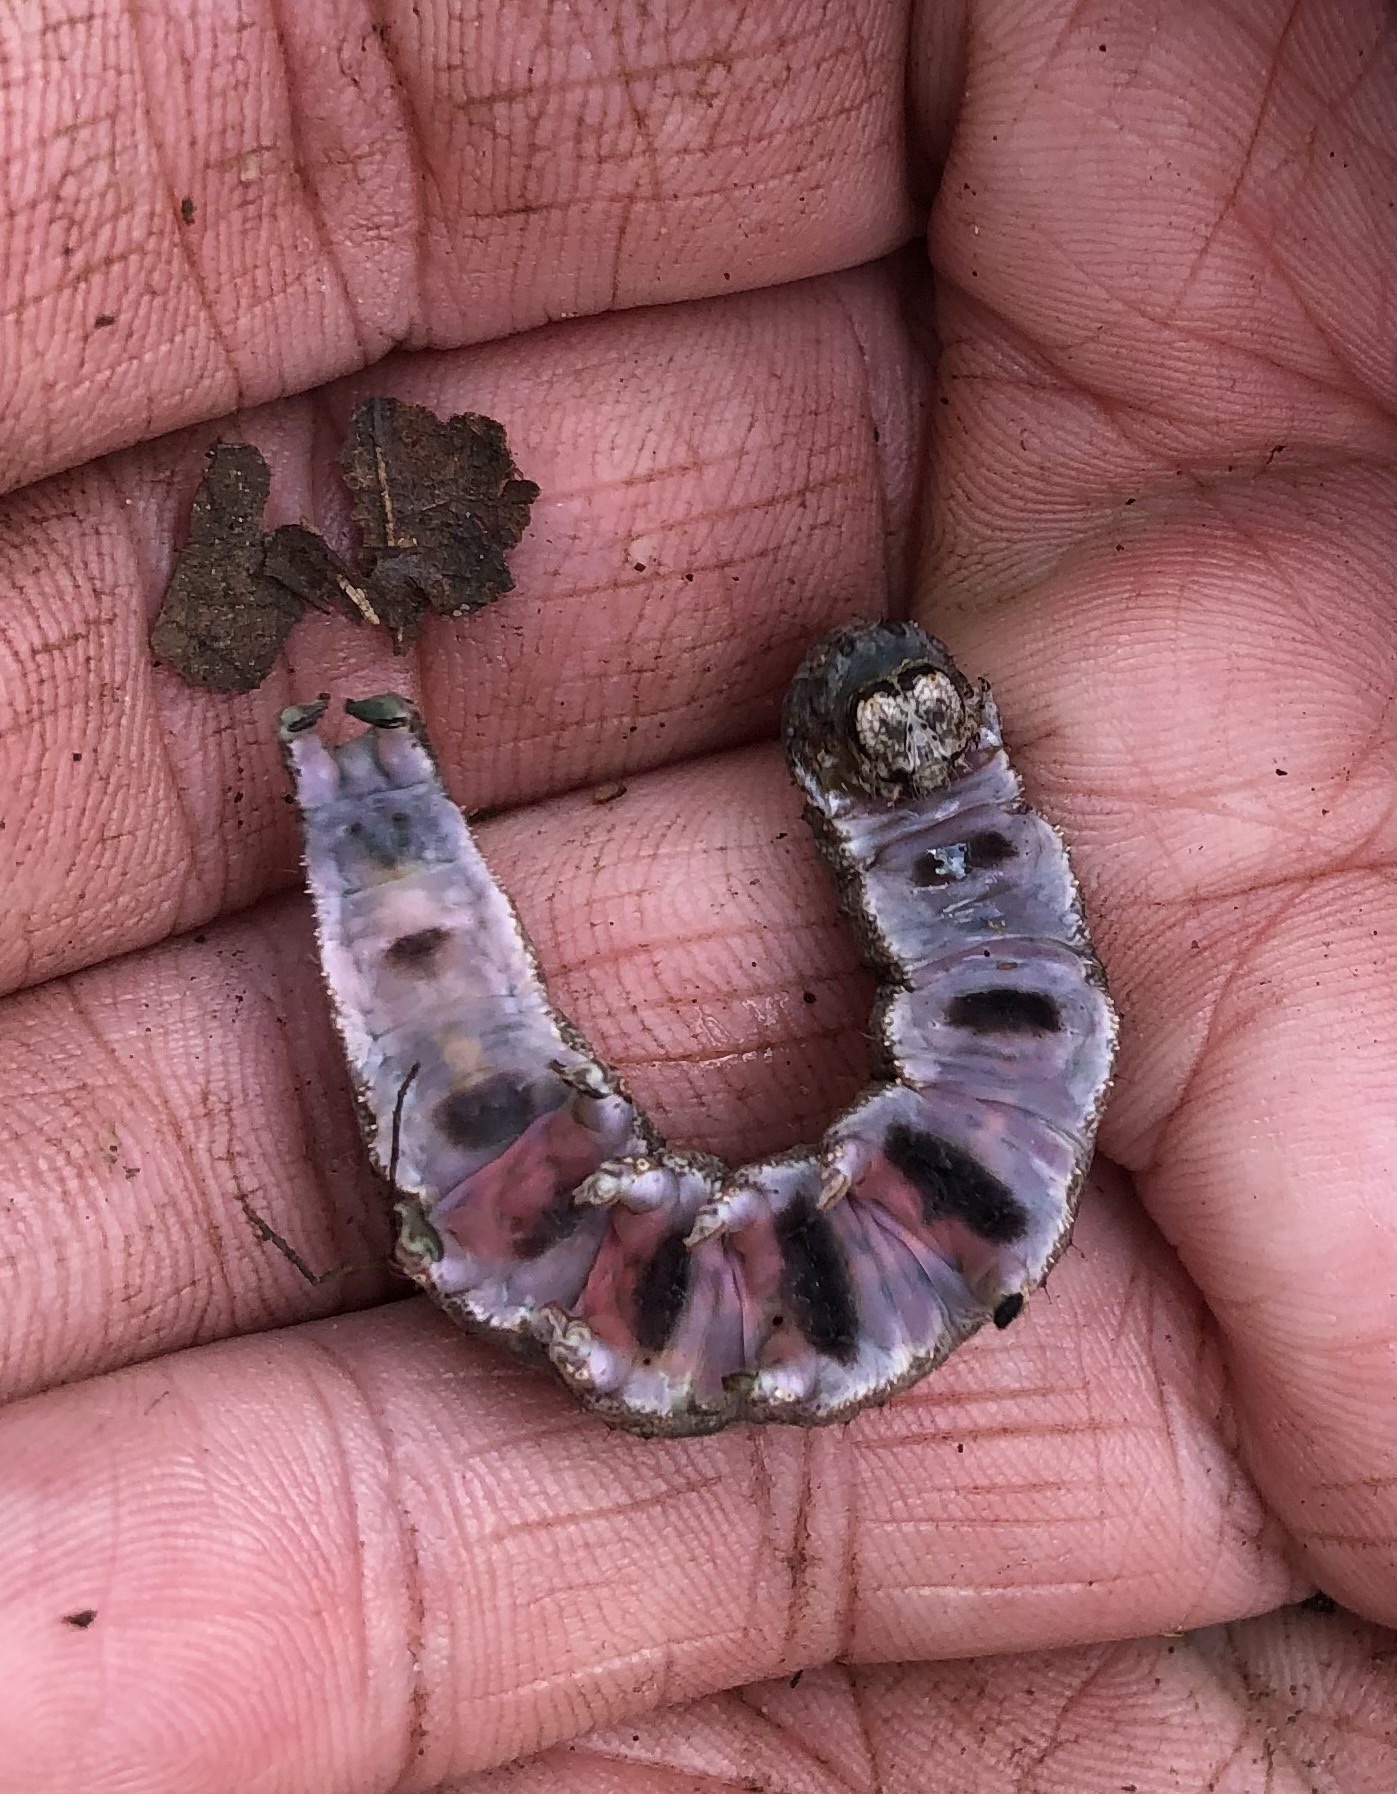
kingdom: Animalia
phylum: Arthropoda
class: Insecta
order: Lepidoptera
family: Erebidae
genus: Catocala
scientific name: Catocala ilia
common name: Ilia underwing
